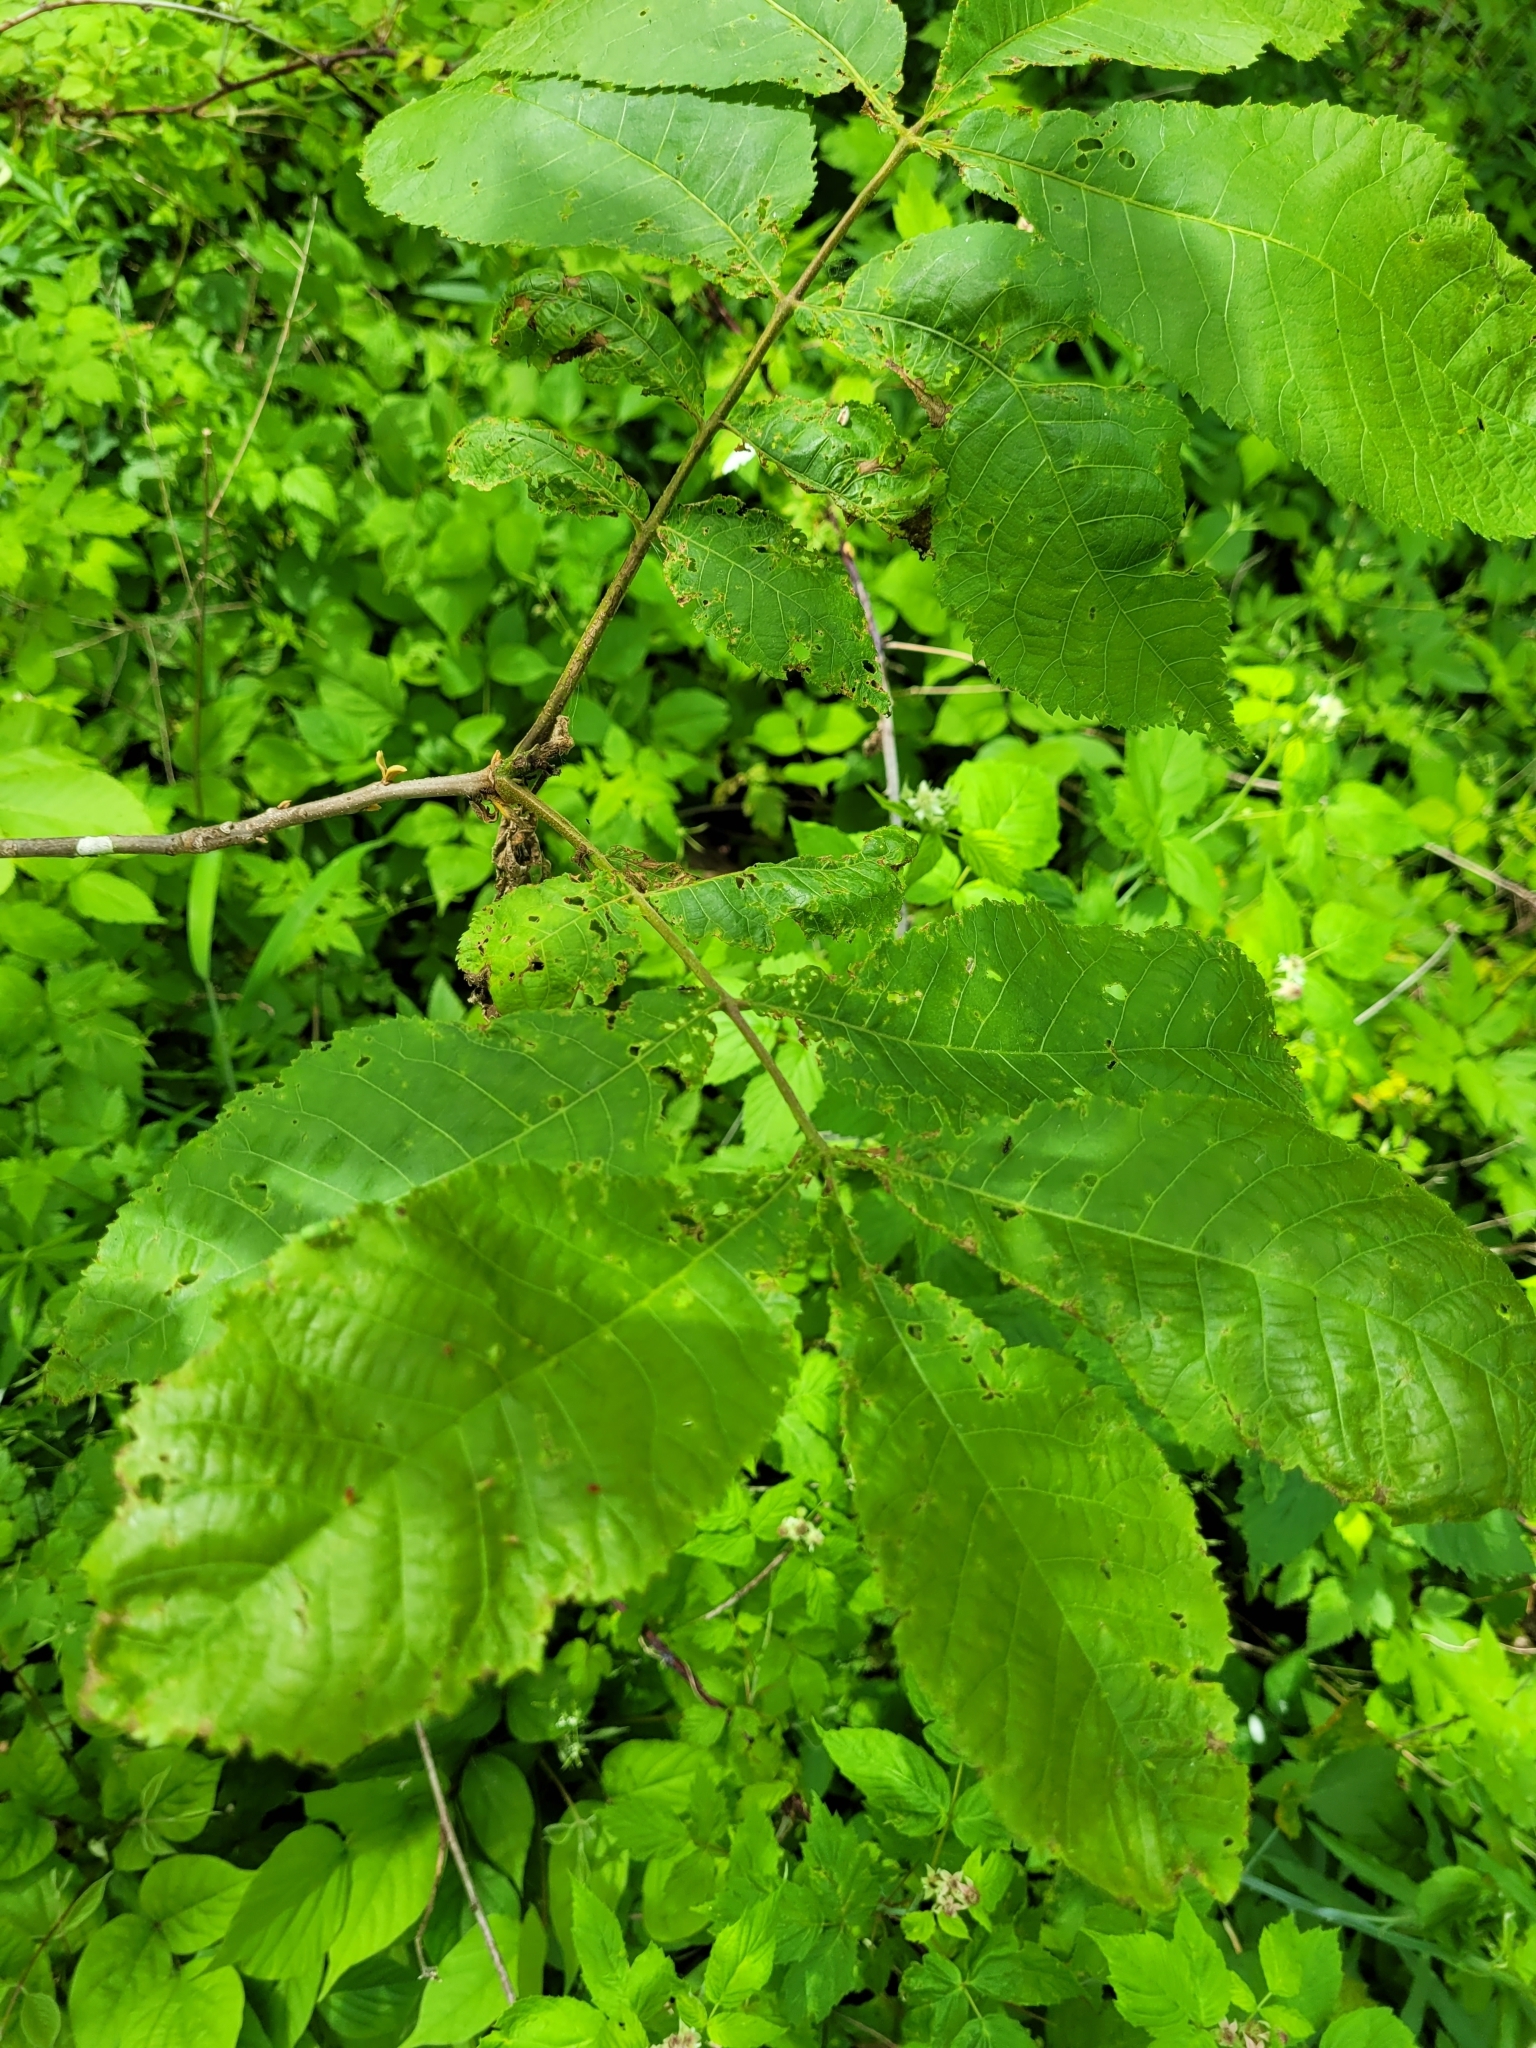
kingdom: Animalia
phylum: Arthropoda
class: Insecta
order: Diptera
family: Cecidomyiidae
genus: Caryomyia
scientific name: Caryomyia striolata
